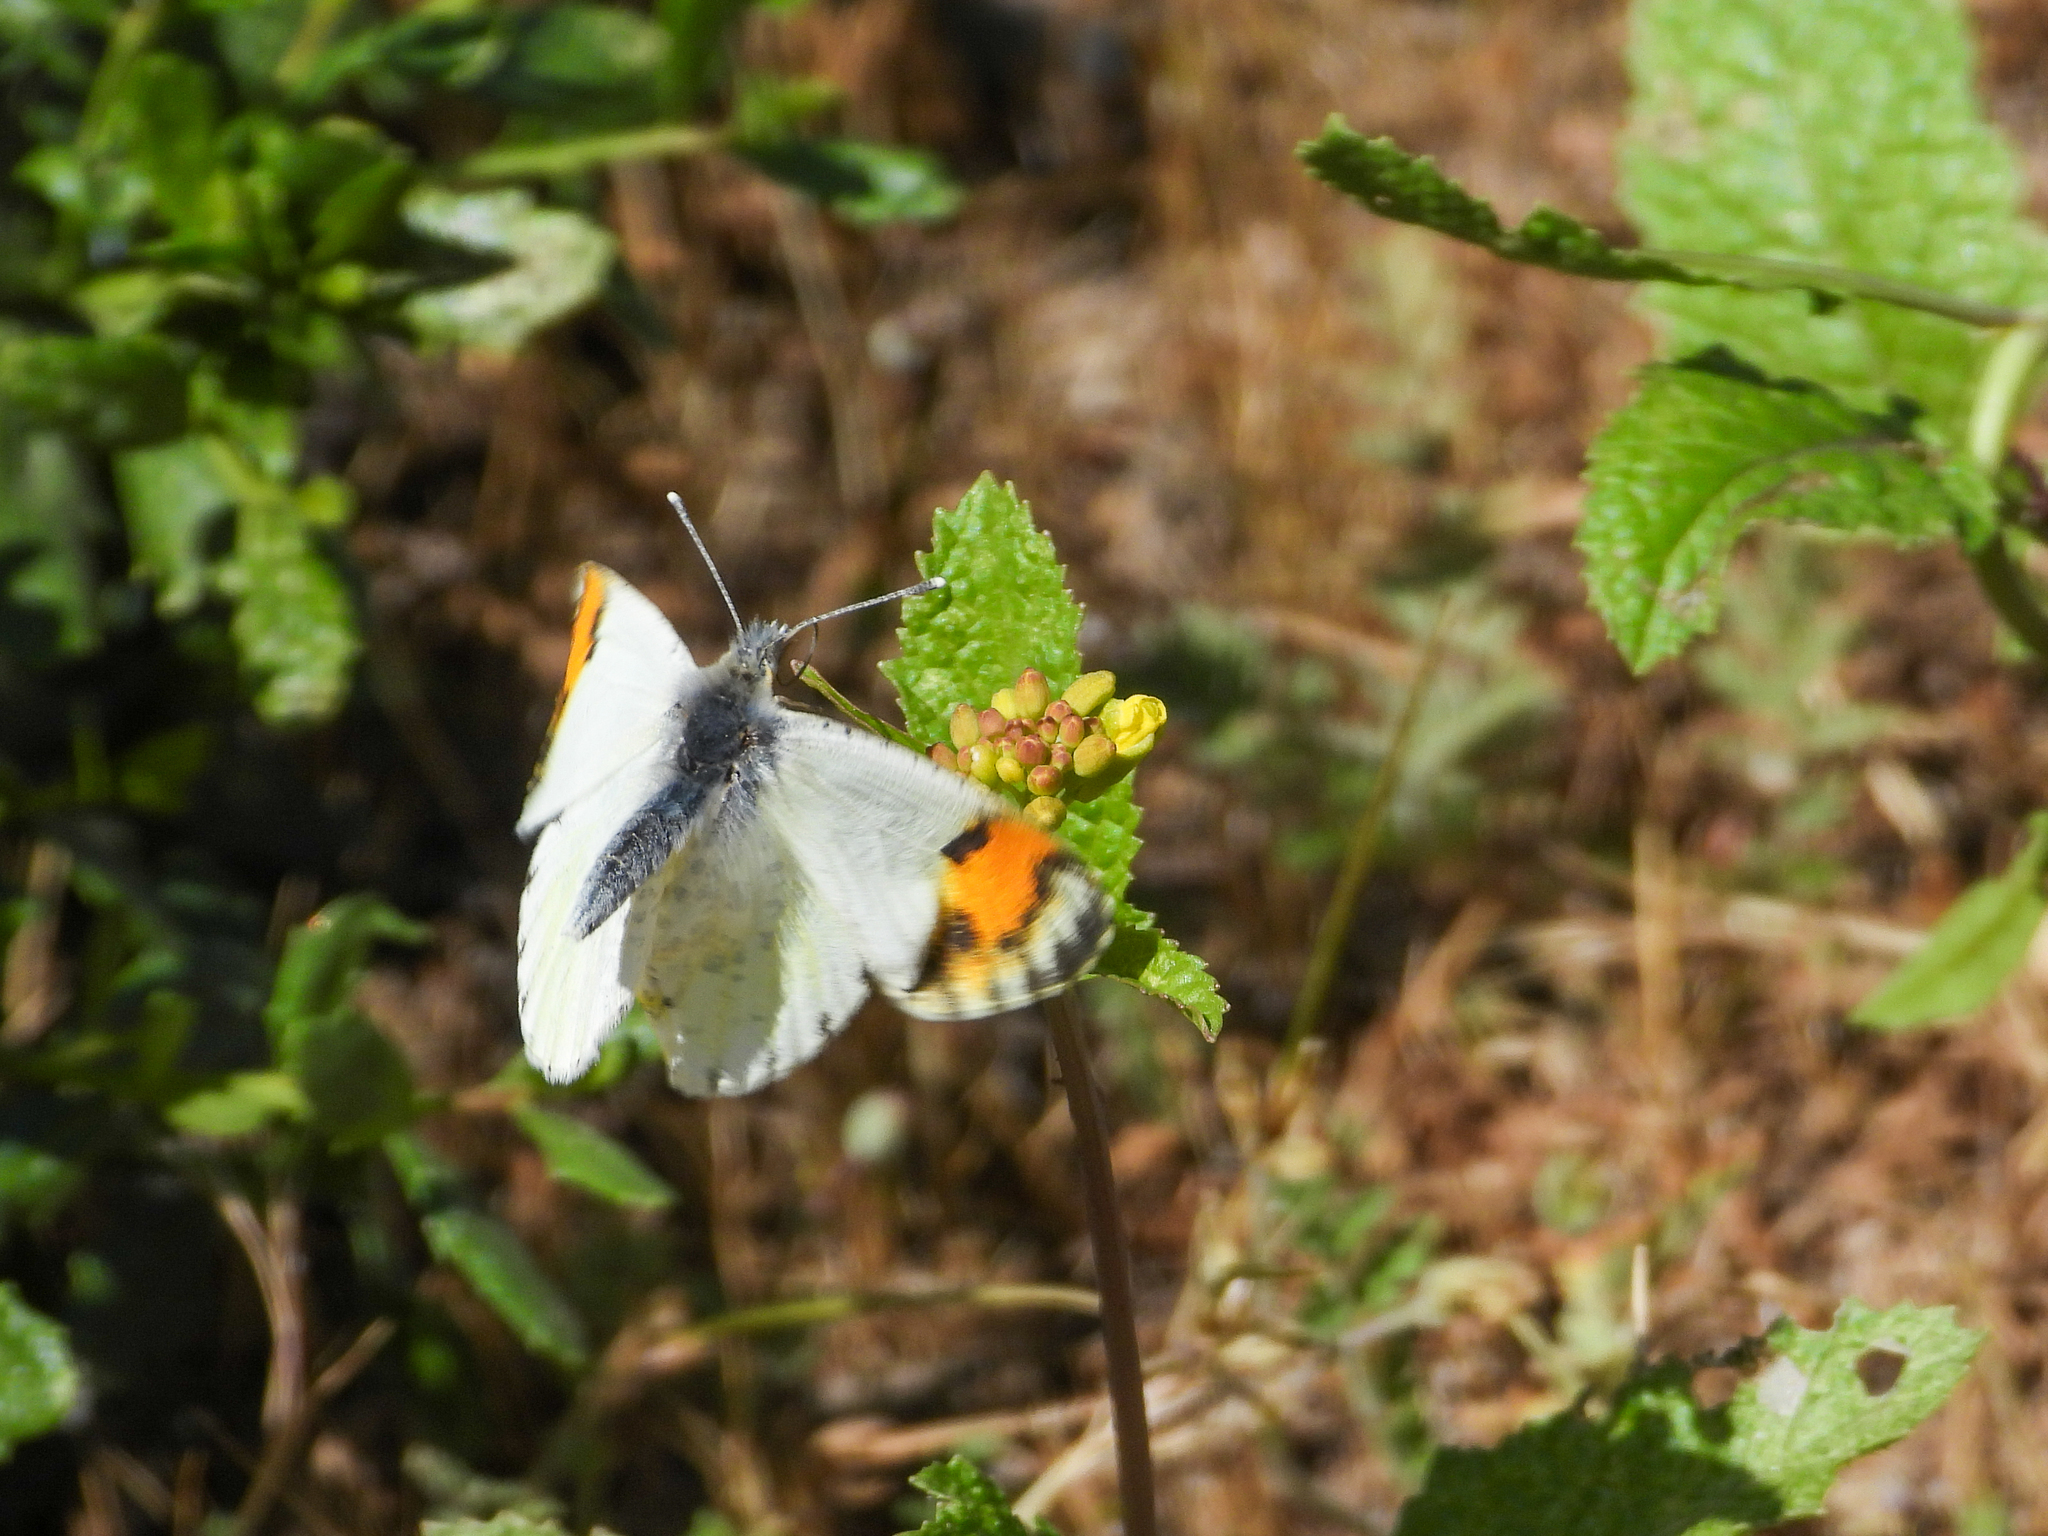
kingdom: Animalia
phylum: Arthropoda
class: Insecta
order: Lepidoptera
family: Pieridae
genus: Anthocharis
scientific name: Anthocharis sara
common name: Sara's orangetip
